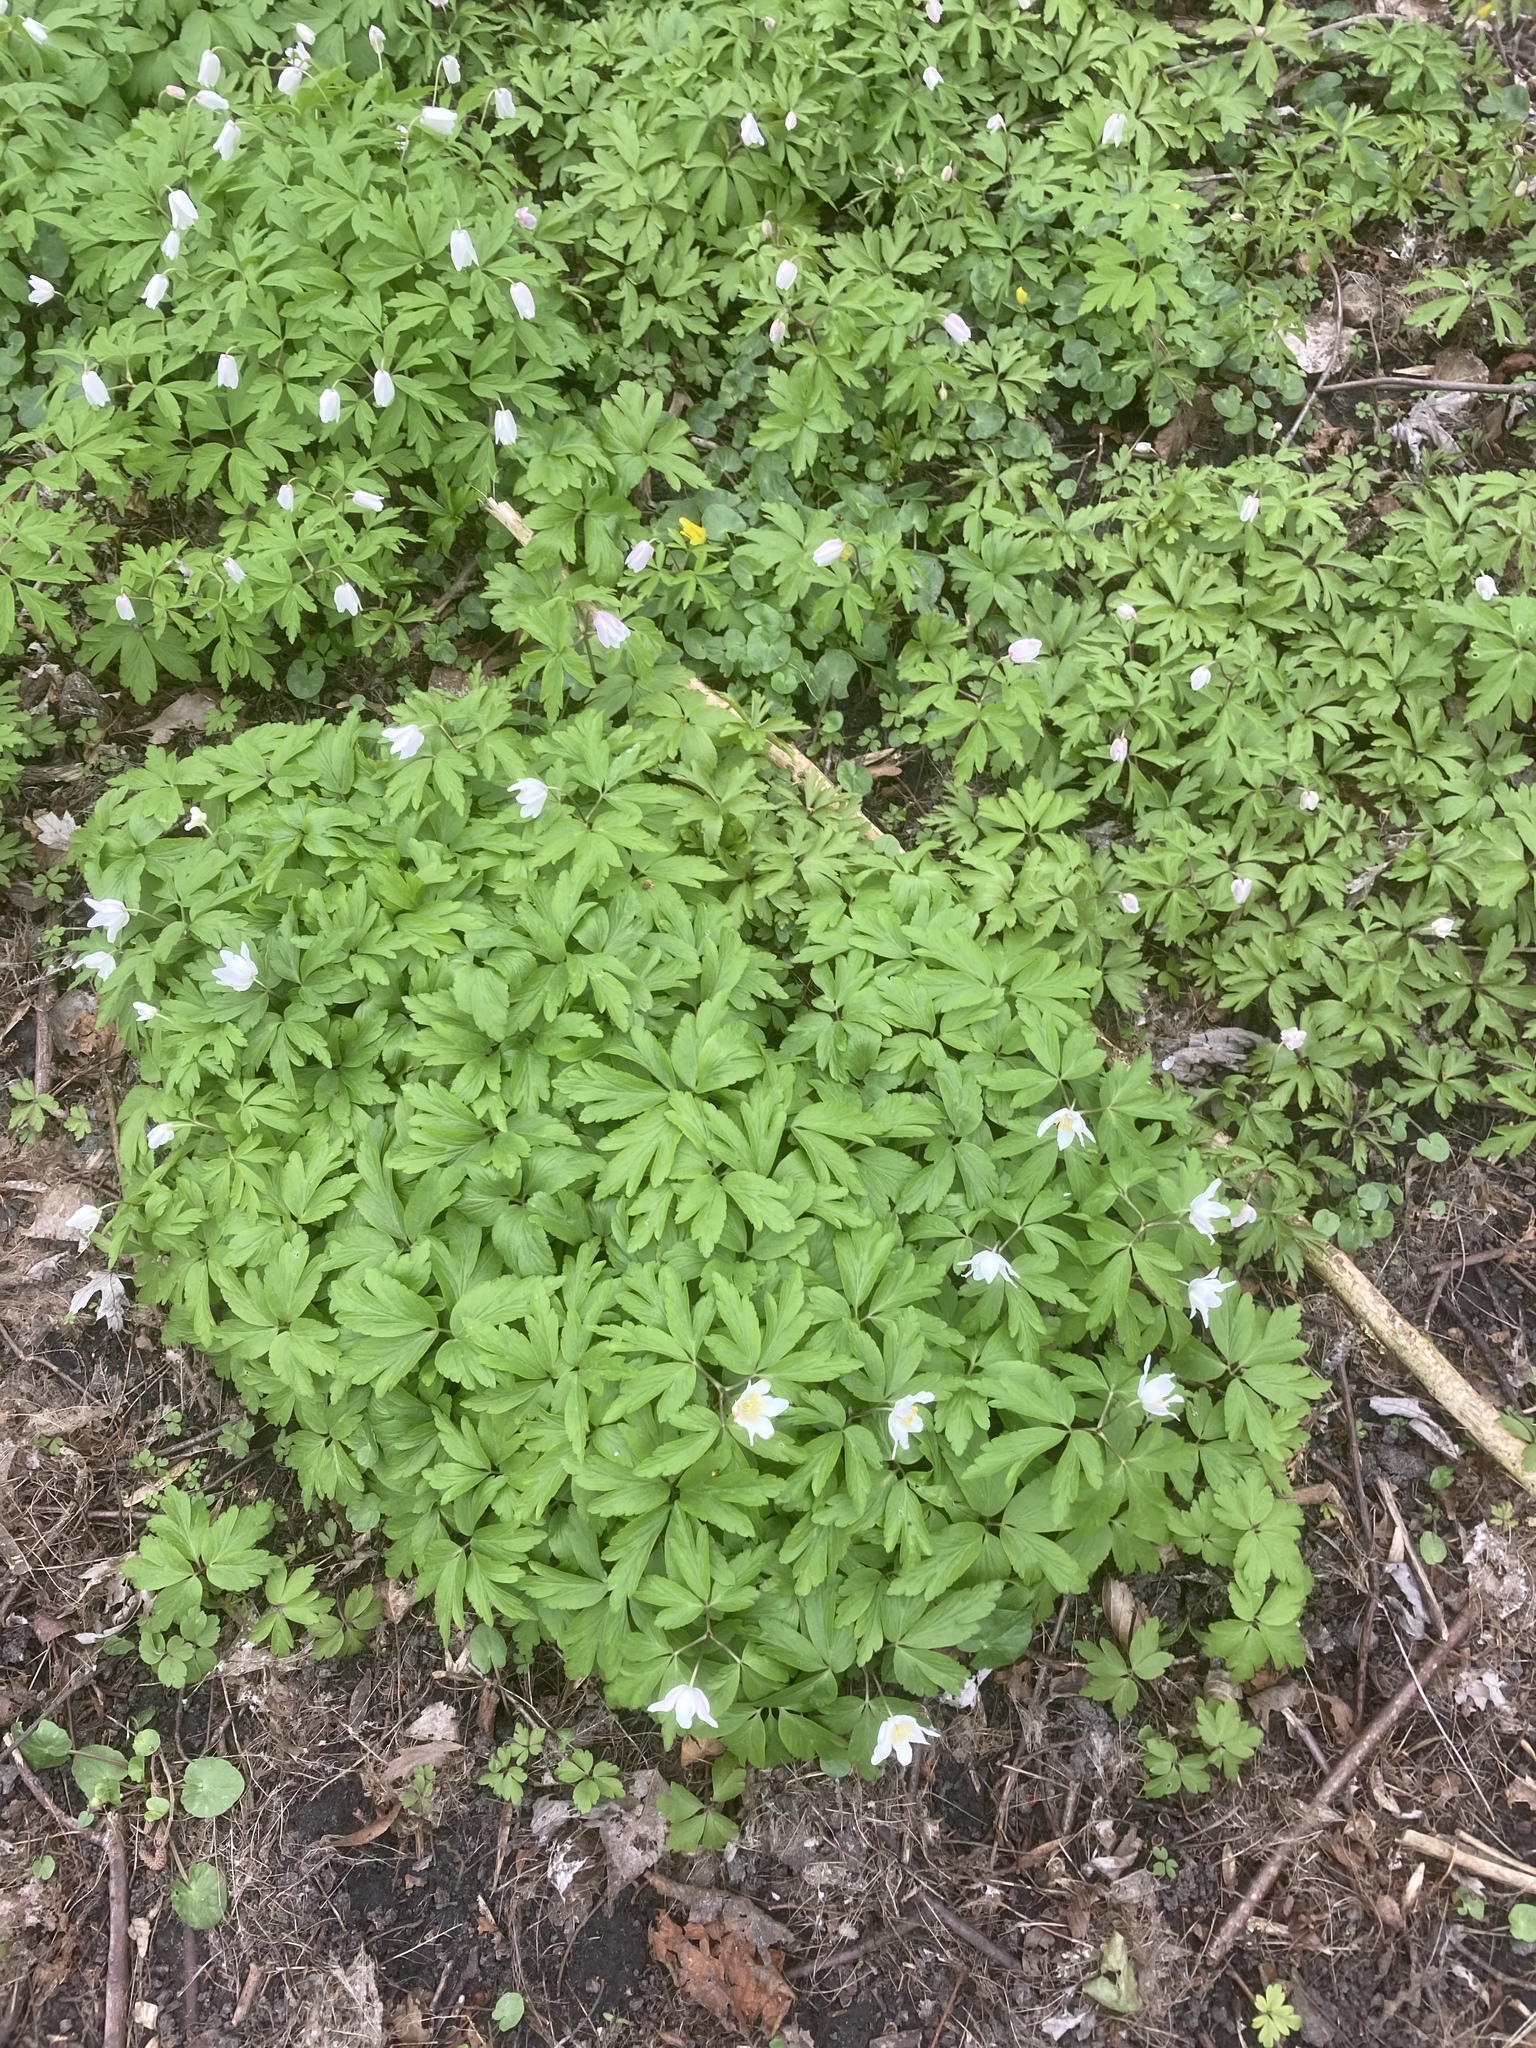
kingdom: Plantae
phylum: Tracheophyta
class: Magnoliopsida
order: Ranunculales
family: Ranunculaceae
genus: Anemone
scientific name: Anemone nemorosa
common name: Wood anemone
